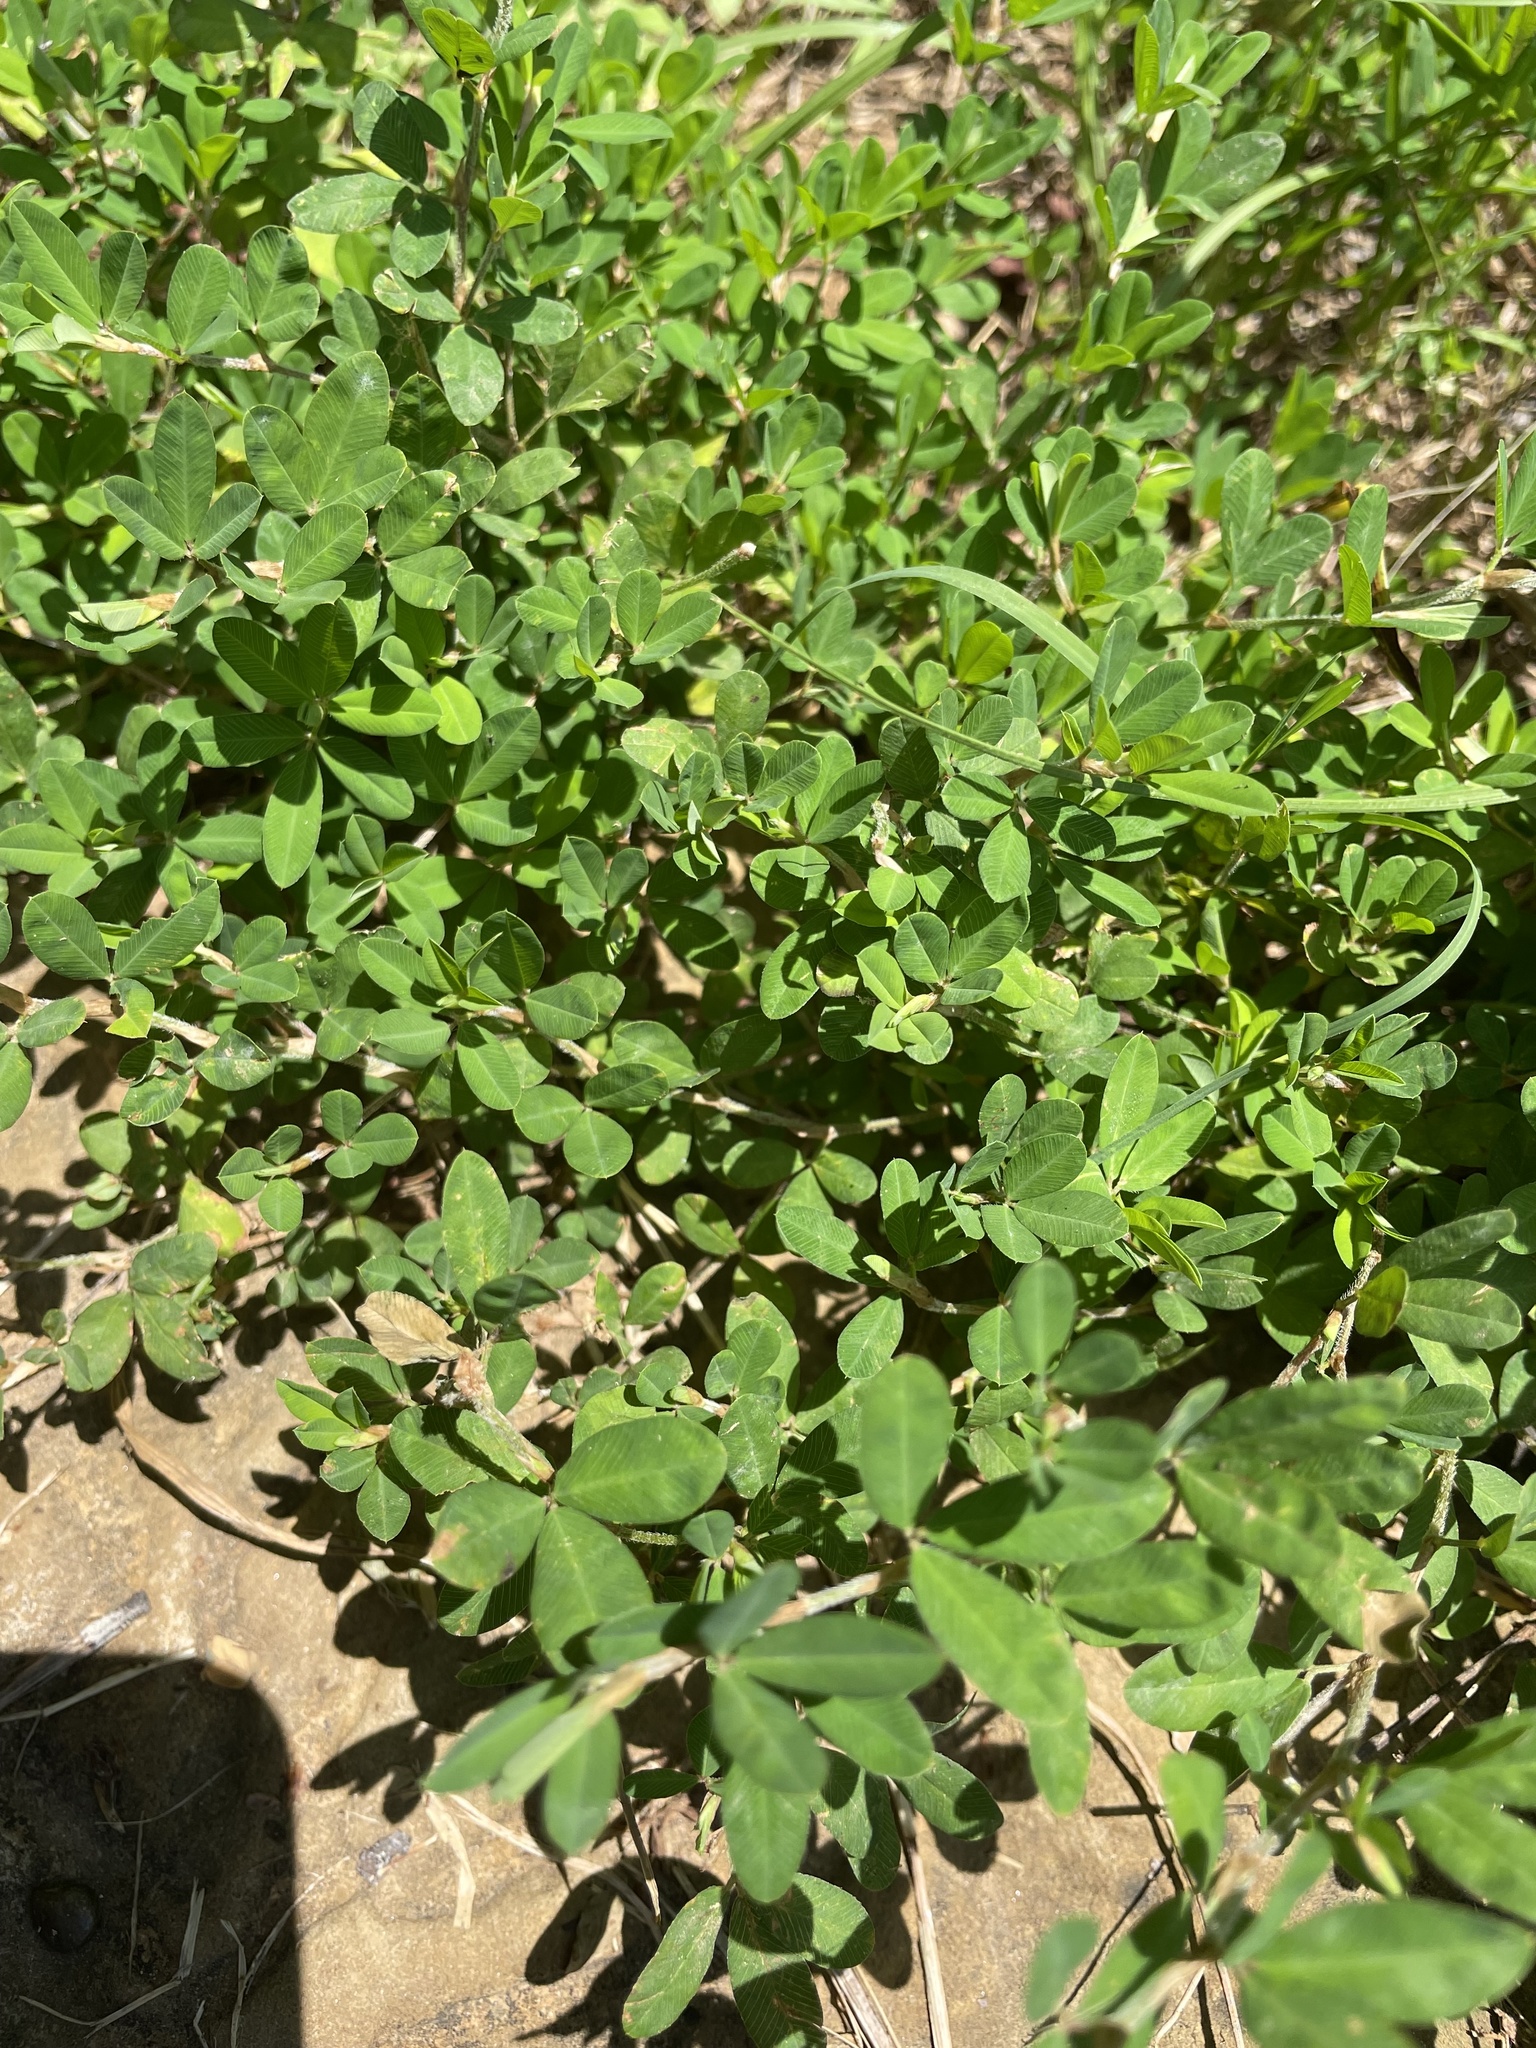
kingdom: Plantae
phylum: Tracheophyta
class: Magnoliopsida
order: Fabales
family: Fabaceae
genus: Kummerowia
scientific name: Kummerowia striata
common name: Japanese clover
